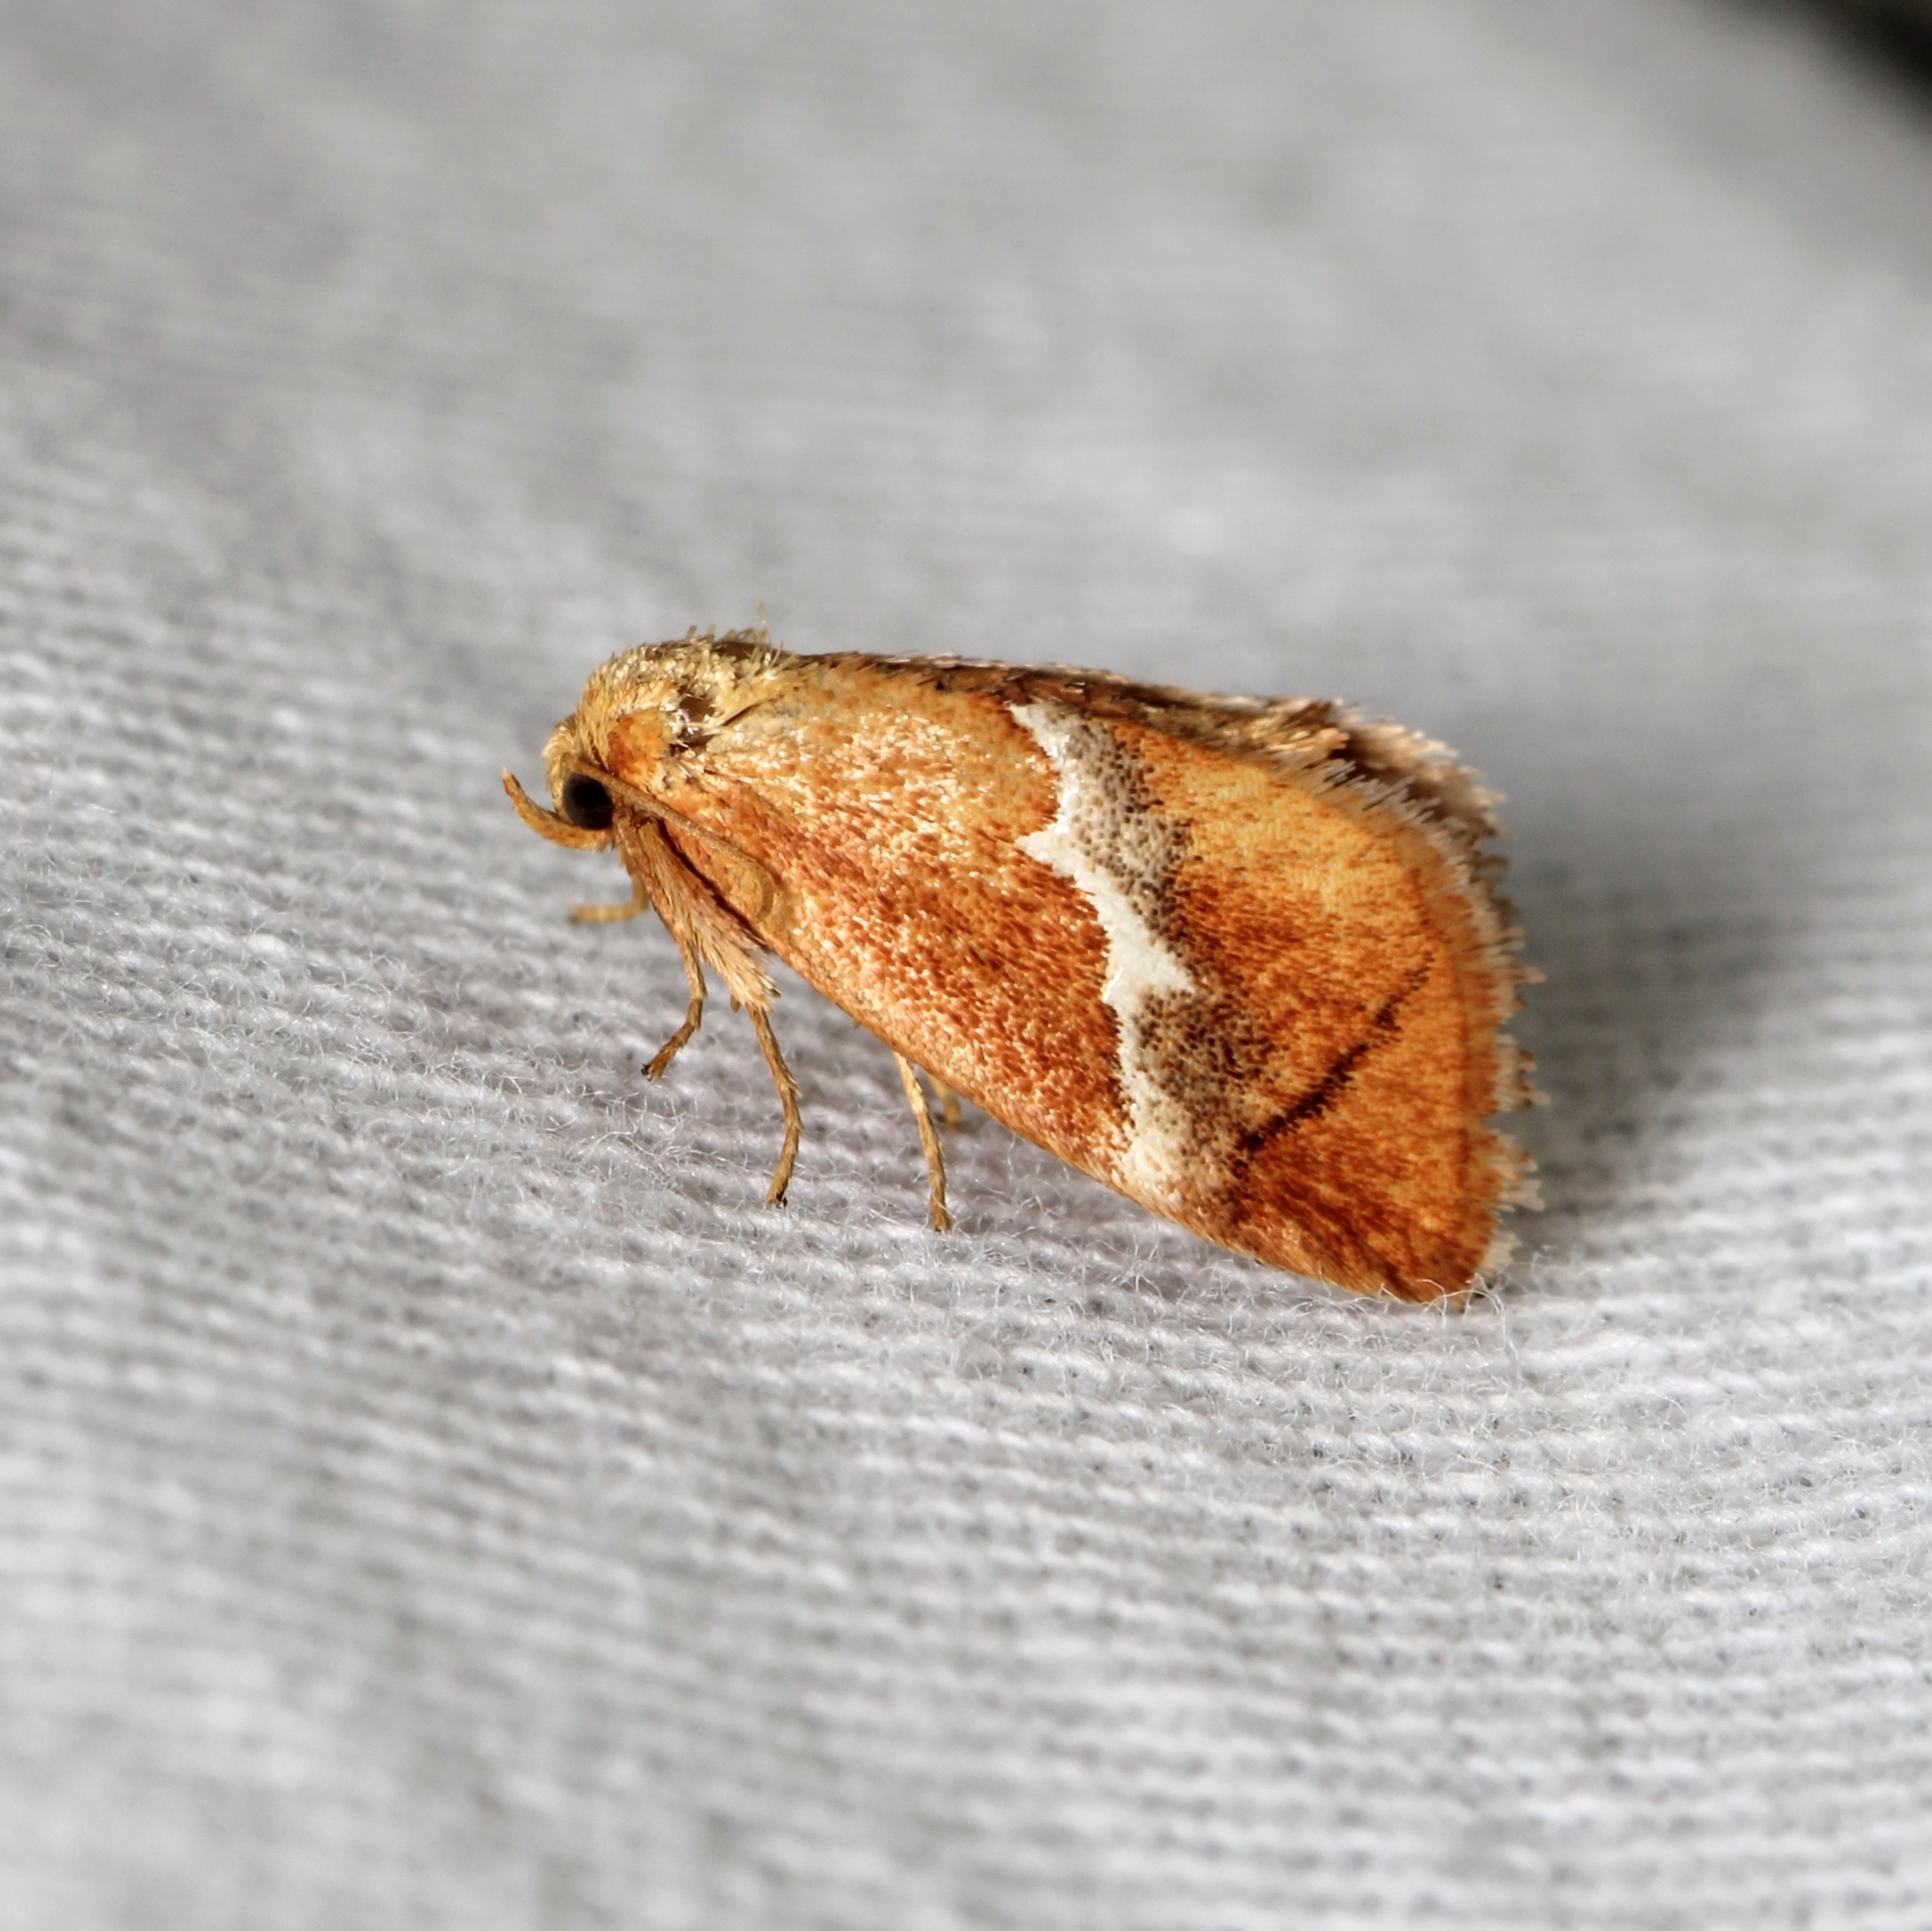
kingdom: Animalia
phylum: Arthropoda
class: Insecta
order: Lepidoptera
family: Limacodidae
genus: Lithacodes
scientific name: Lithacodes fasciola
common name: Yellow-shouldered slug moth
